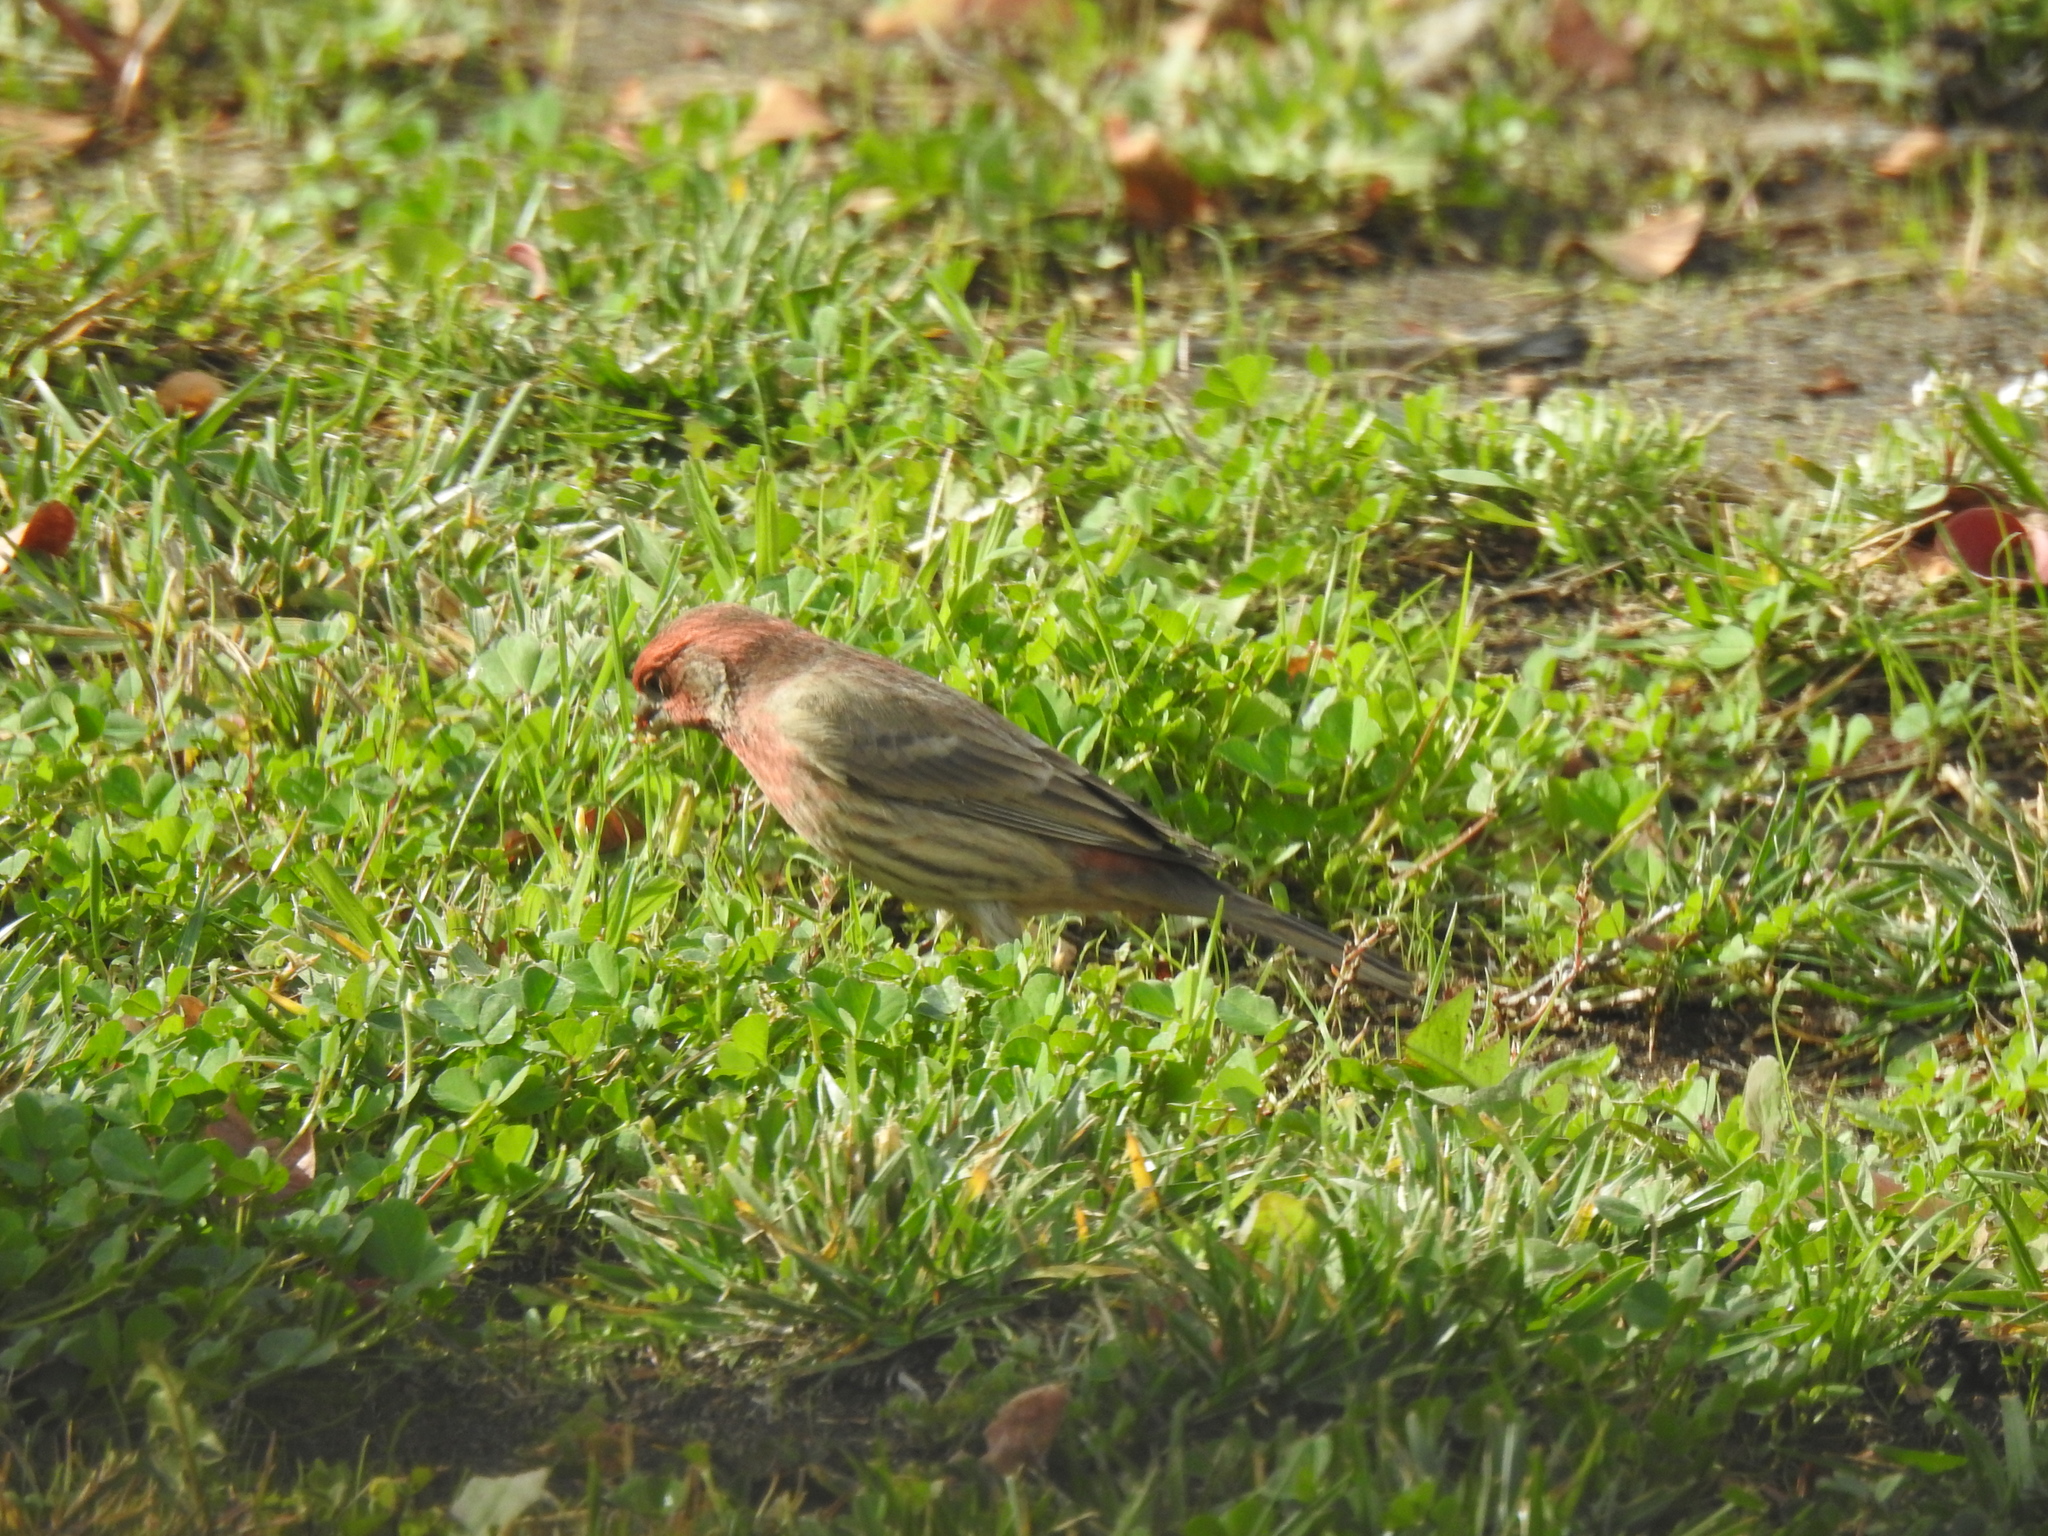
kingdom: Animalia
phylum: Chordata
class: Aves
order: Passeriformes
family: Fringillidae
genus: Haemorhous
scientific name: Haemorhous mexicanus
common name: House finch
